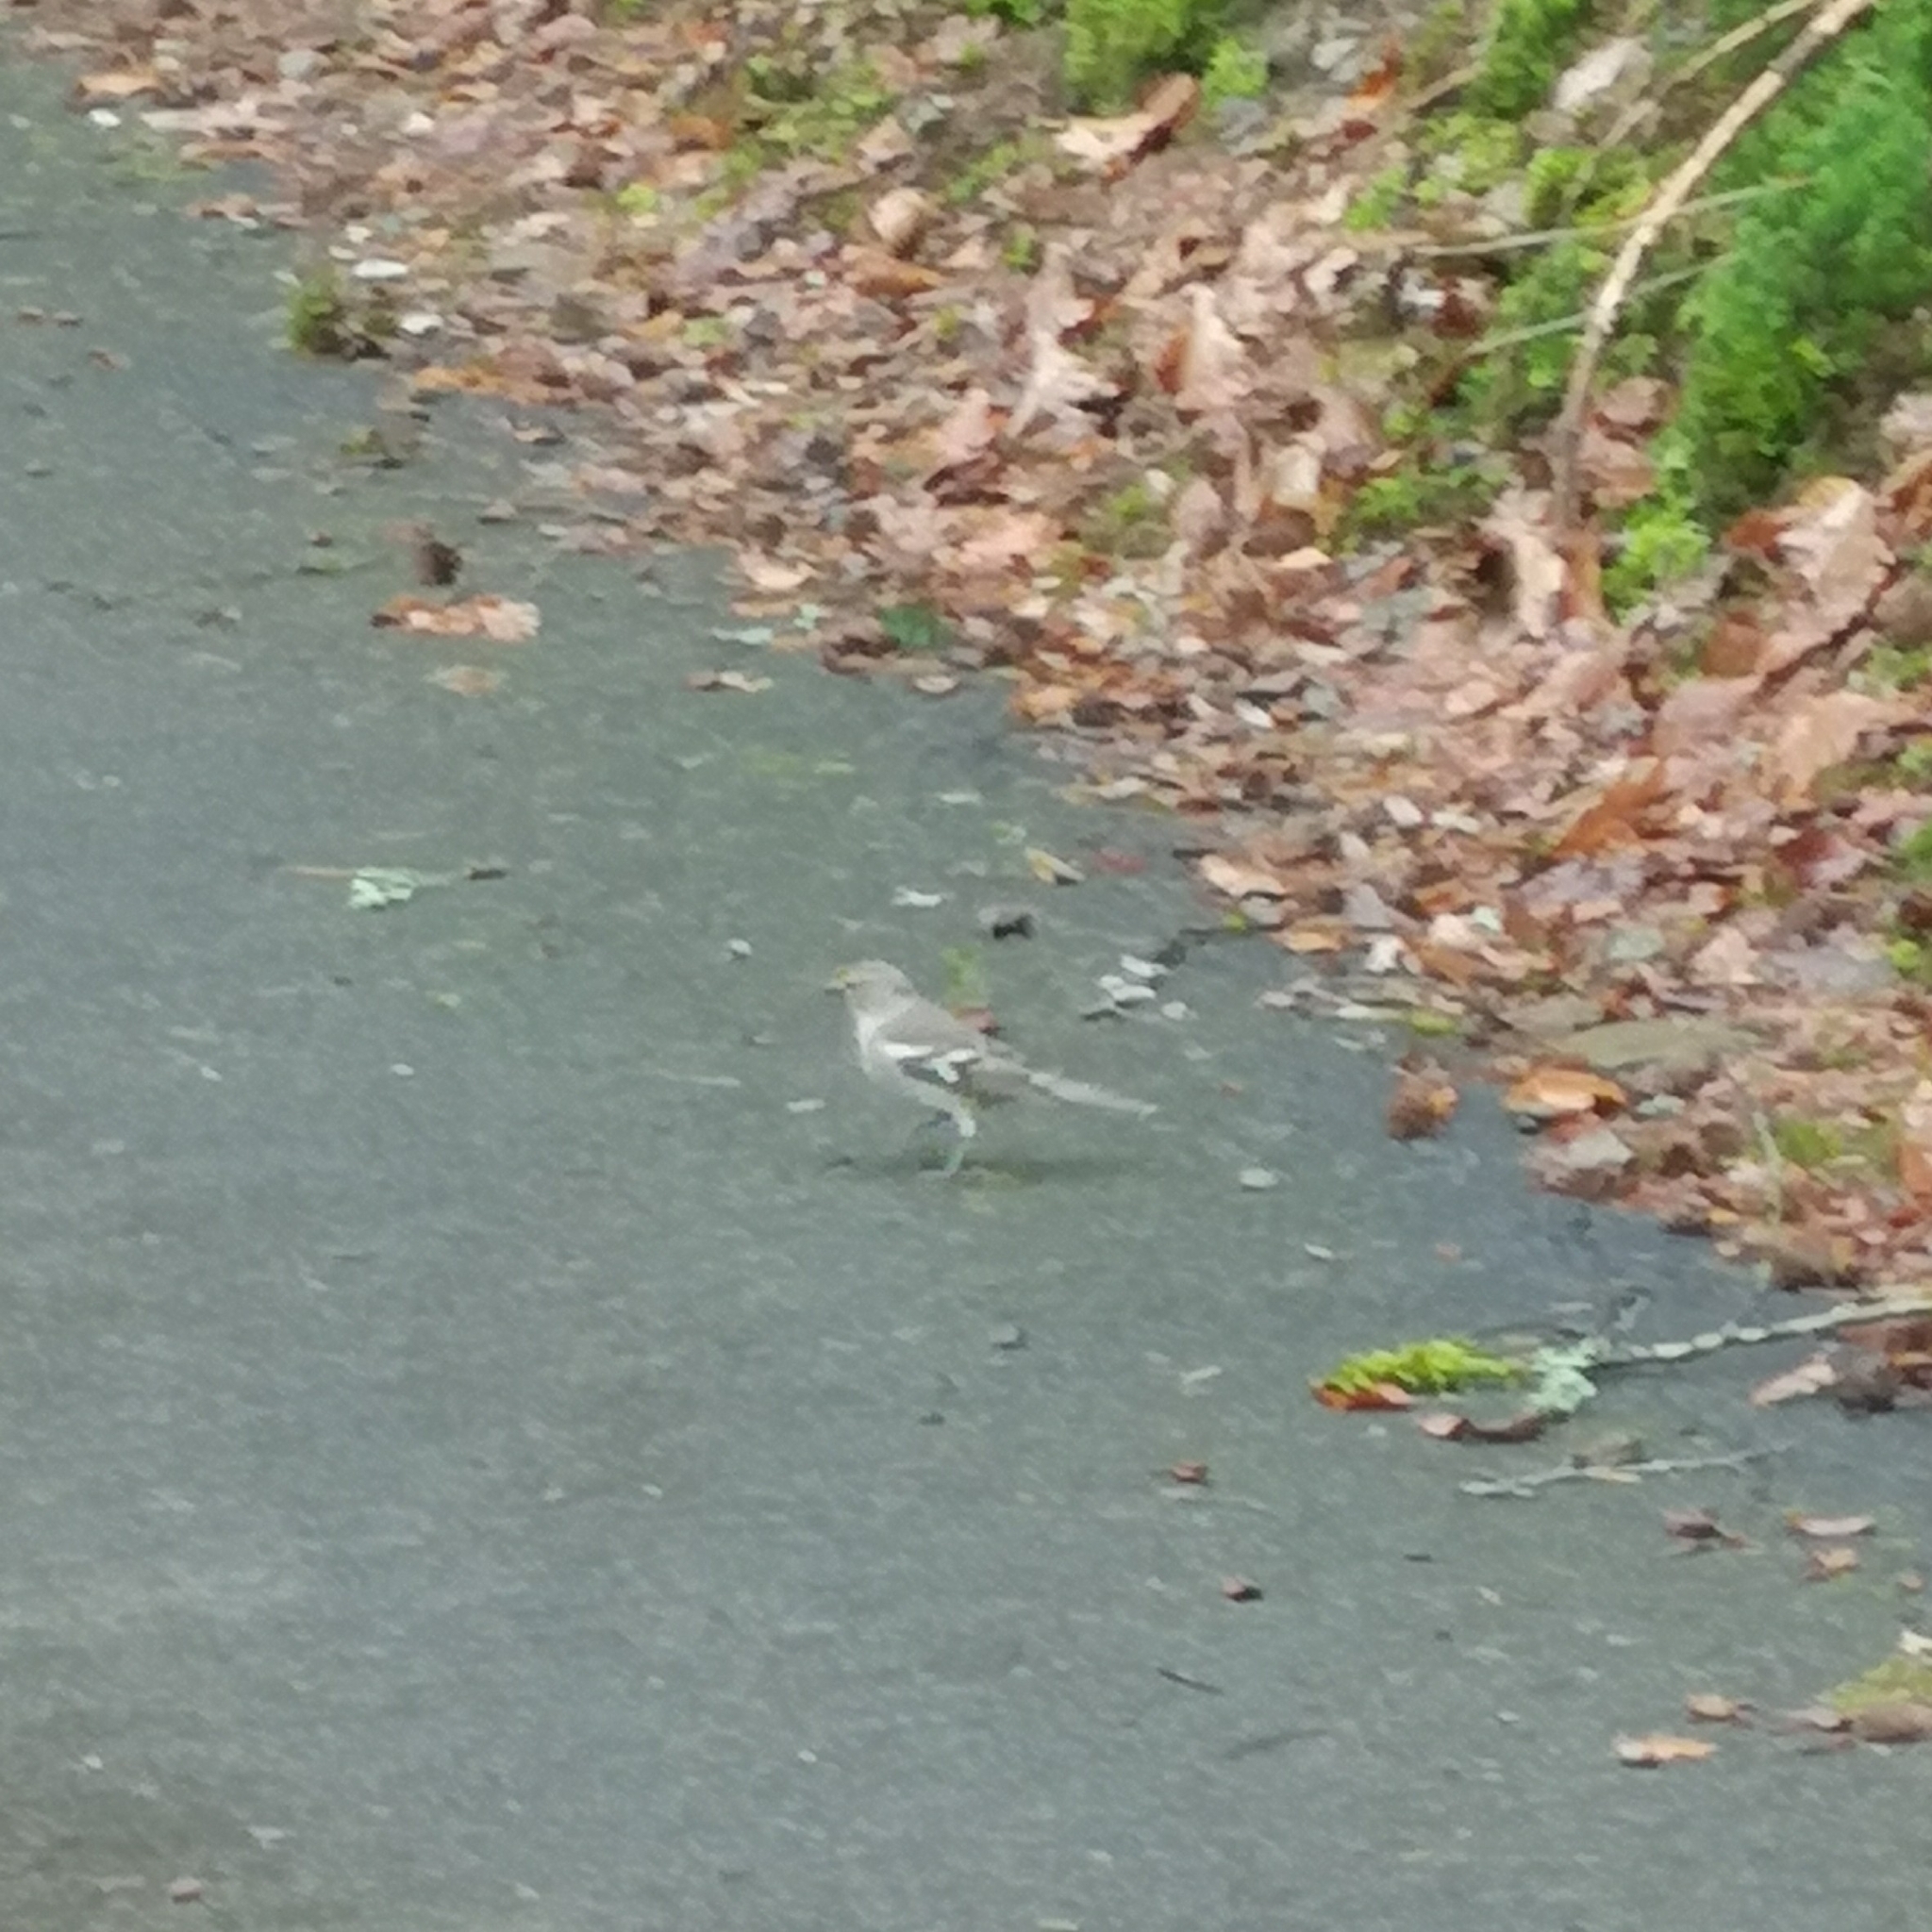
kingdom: Animalia
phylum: Chordata
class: Aves
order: Passeriformes
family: Fringillidae
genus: Fringilla
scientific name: Fringilla coelebs
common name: Common chaffinch
